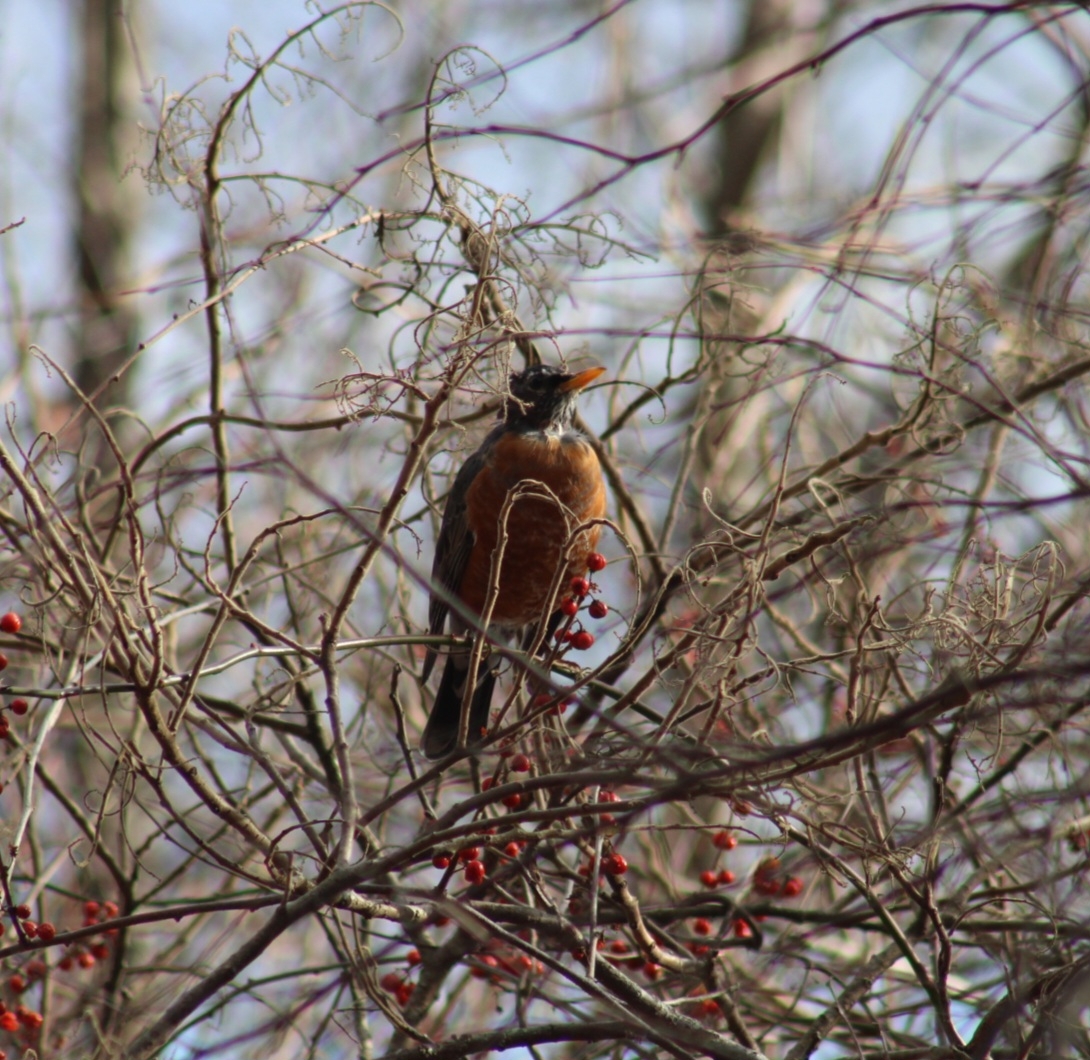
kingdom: Animalia
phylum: Chordata
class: Aves
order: Passeriformes
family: Turdidae
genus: Turdus
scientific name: Turdus migratorius
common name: American robin
